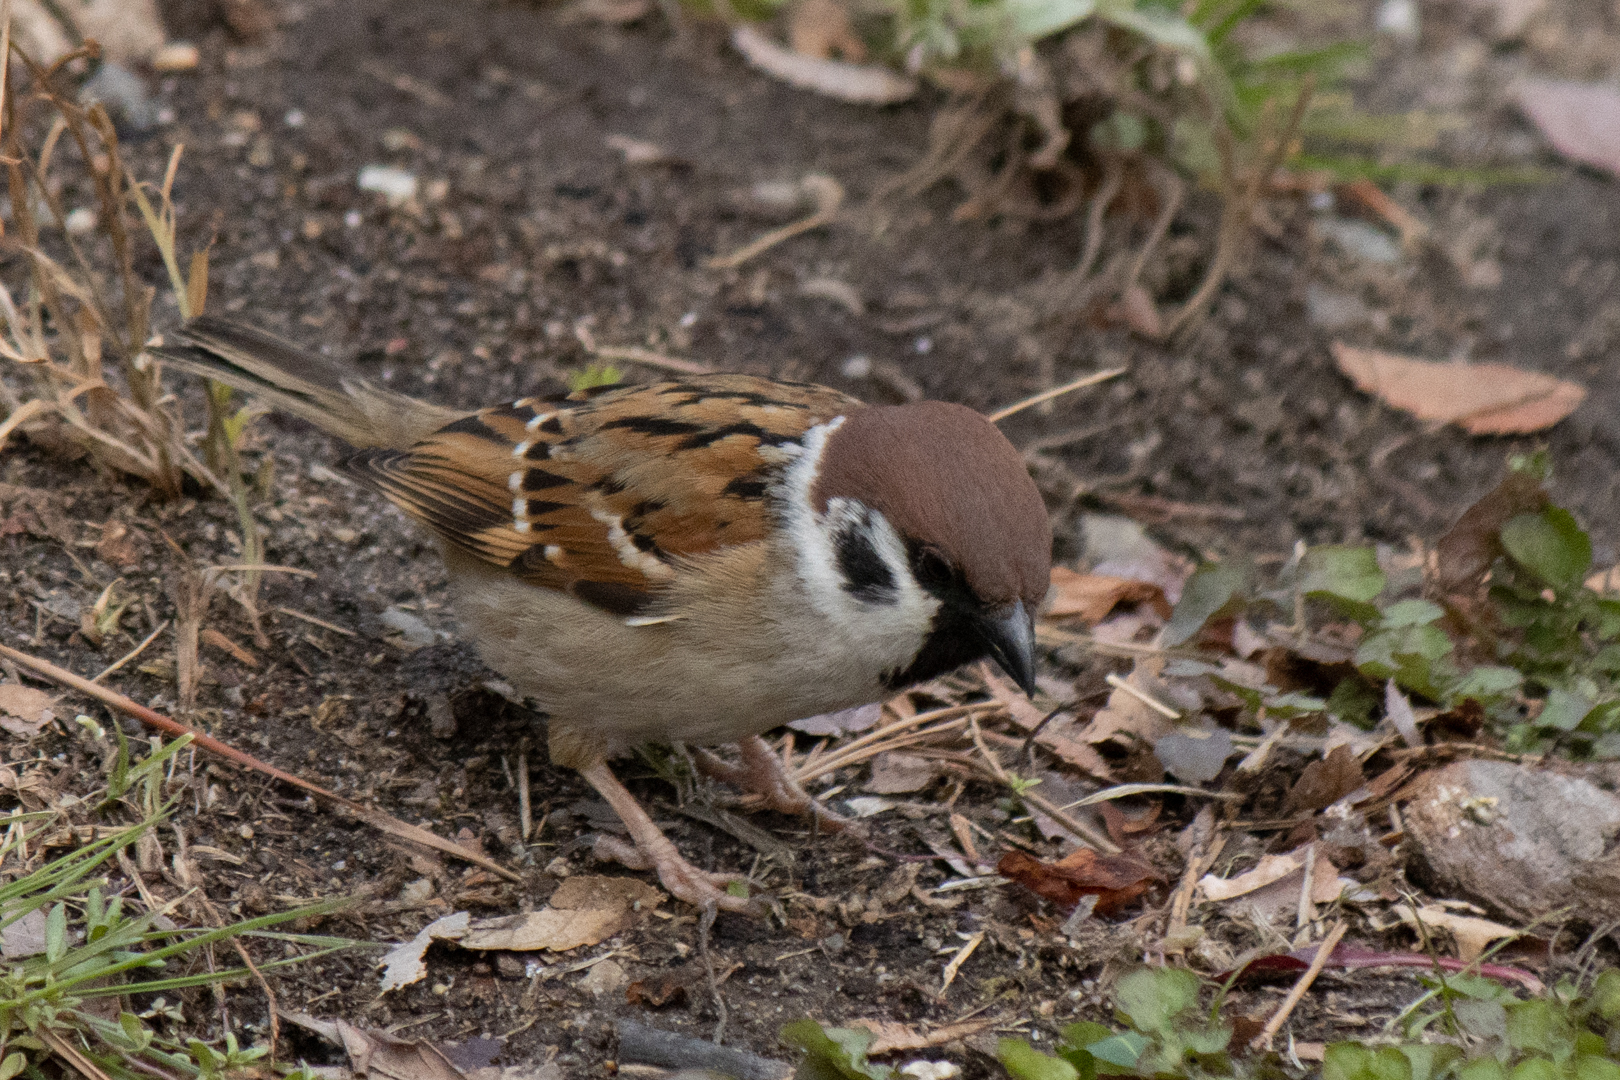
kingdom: Animalia
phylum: Chordata
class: Aves
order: Passeriformes
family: Passeridae
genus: Passer
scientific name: Passer montanus
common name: Eurasian tree sparrow
